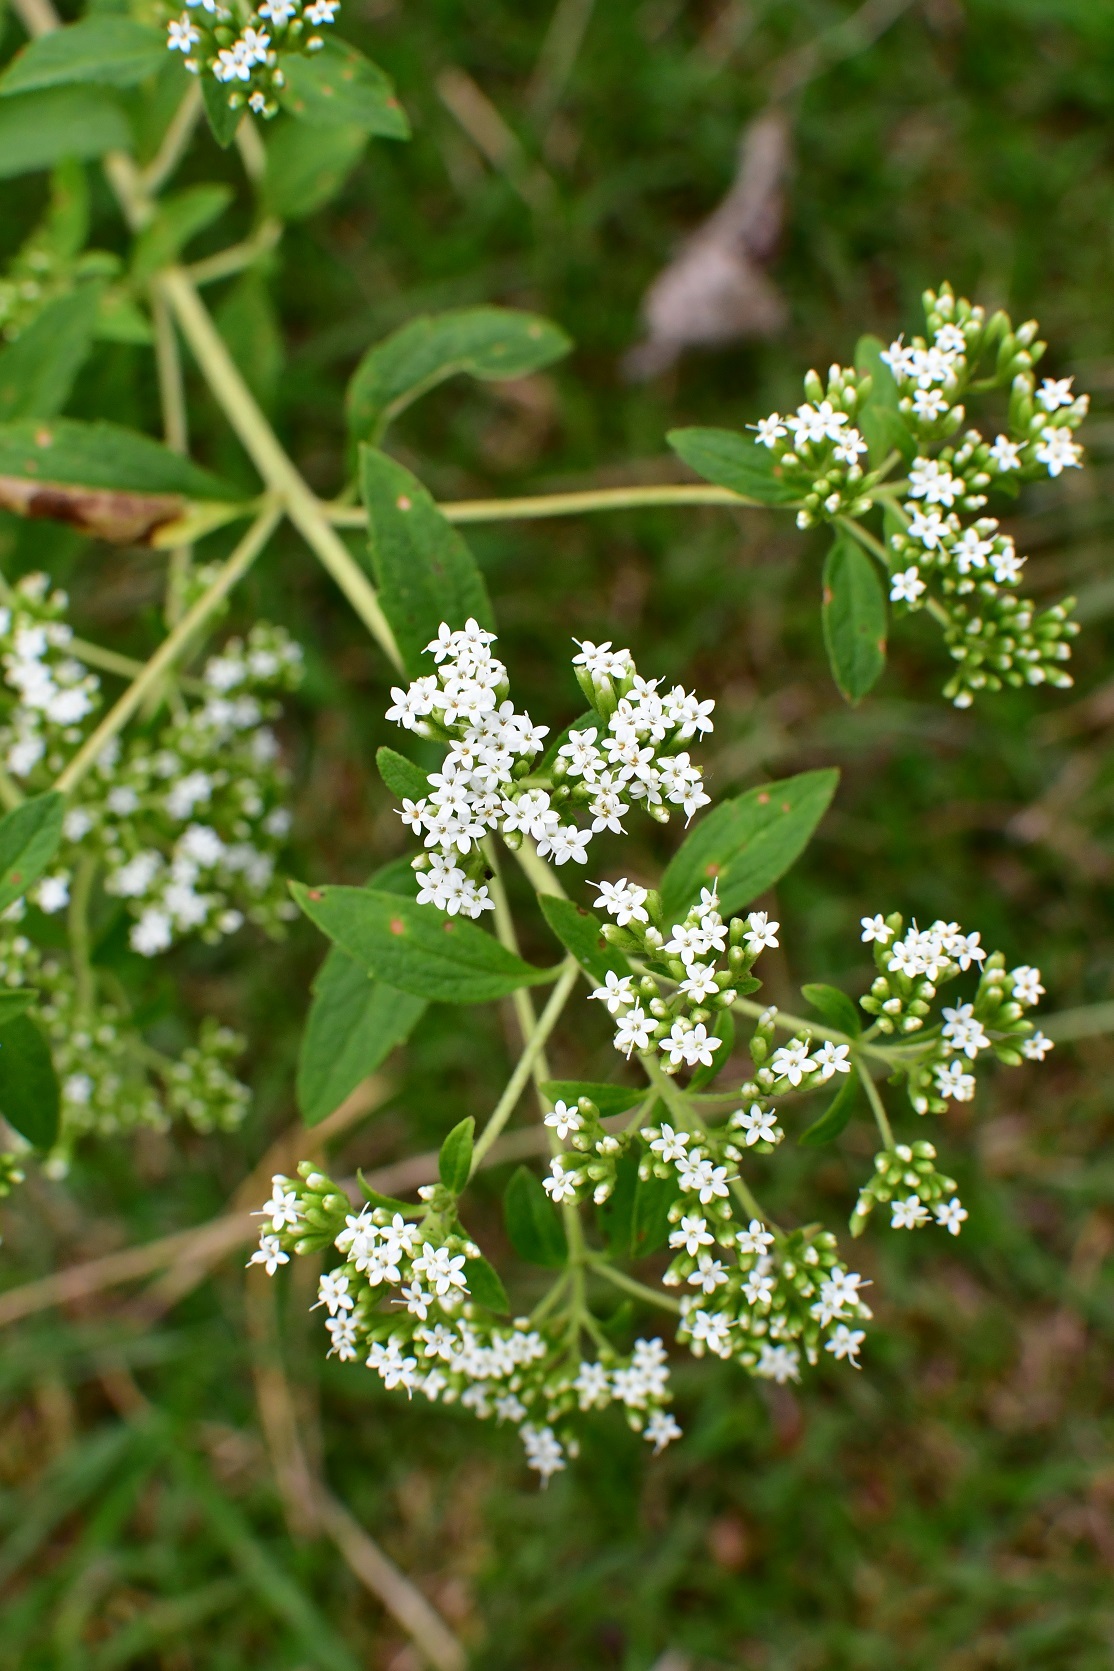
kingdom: Plantae
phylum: Tracheophyta
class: Magnoliopsida
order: Asterales
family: Asteraceae
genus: Stevia
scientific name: Stevia ovata
